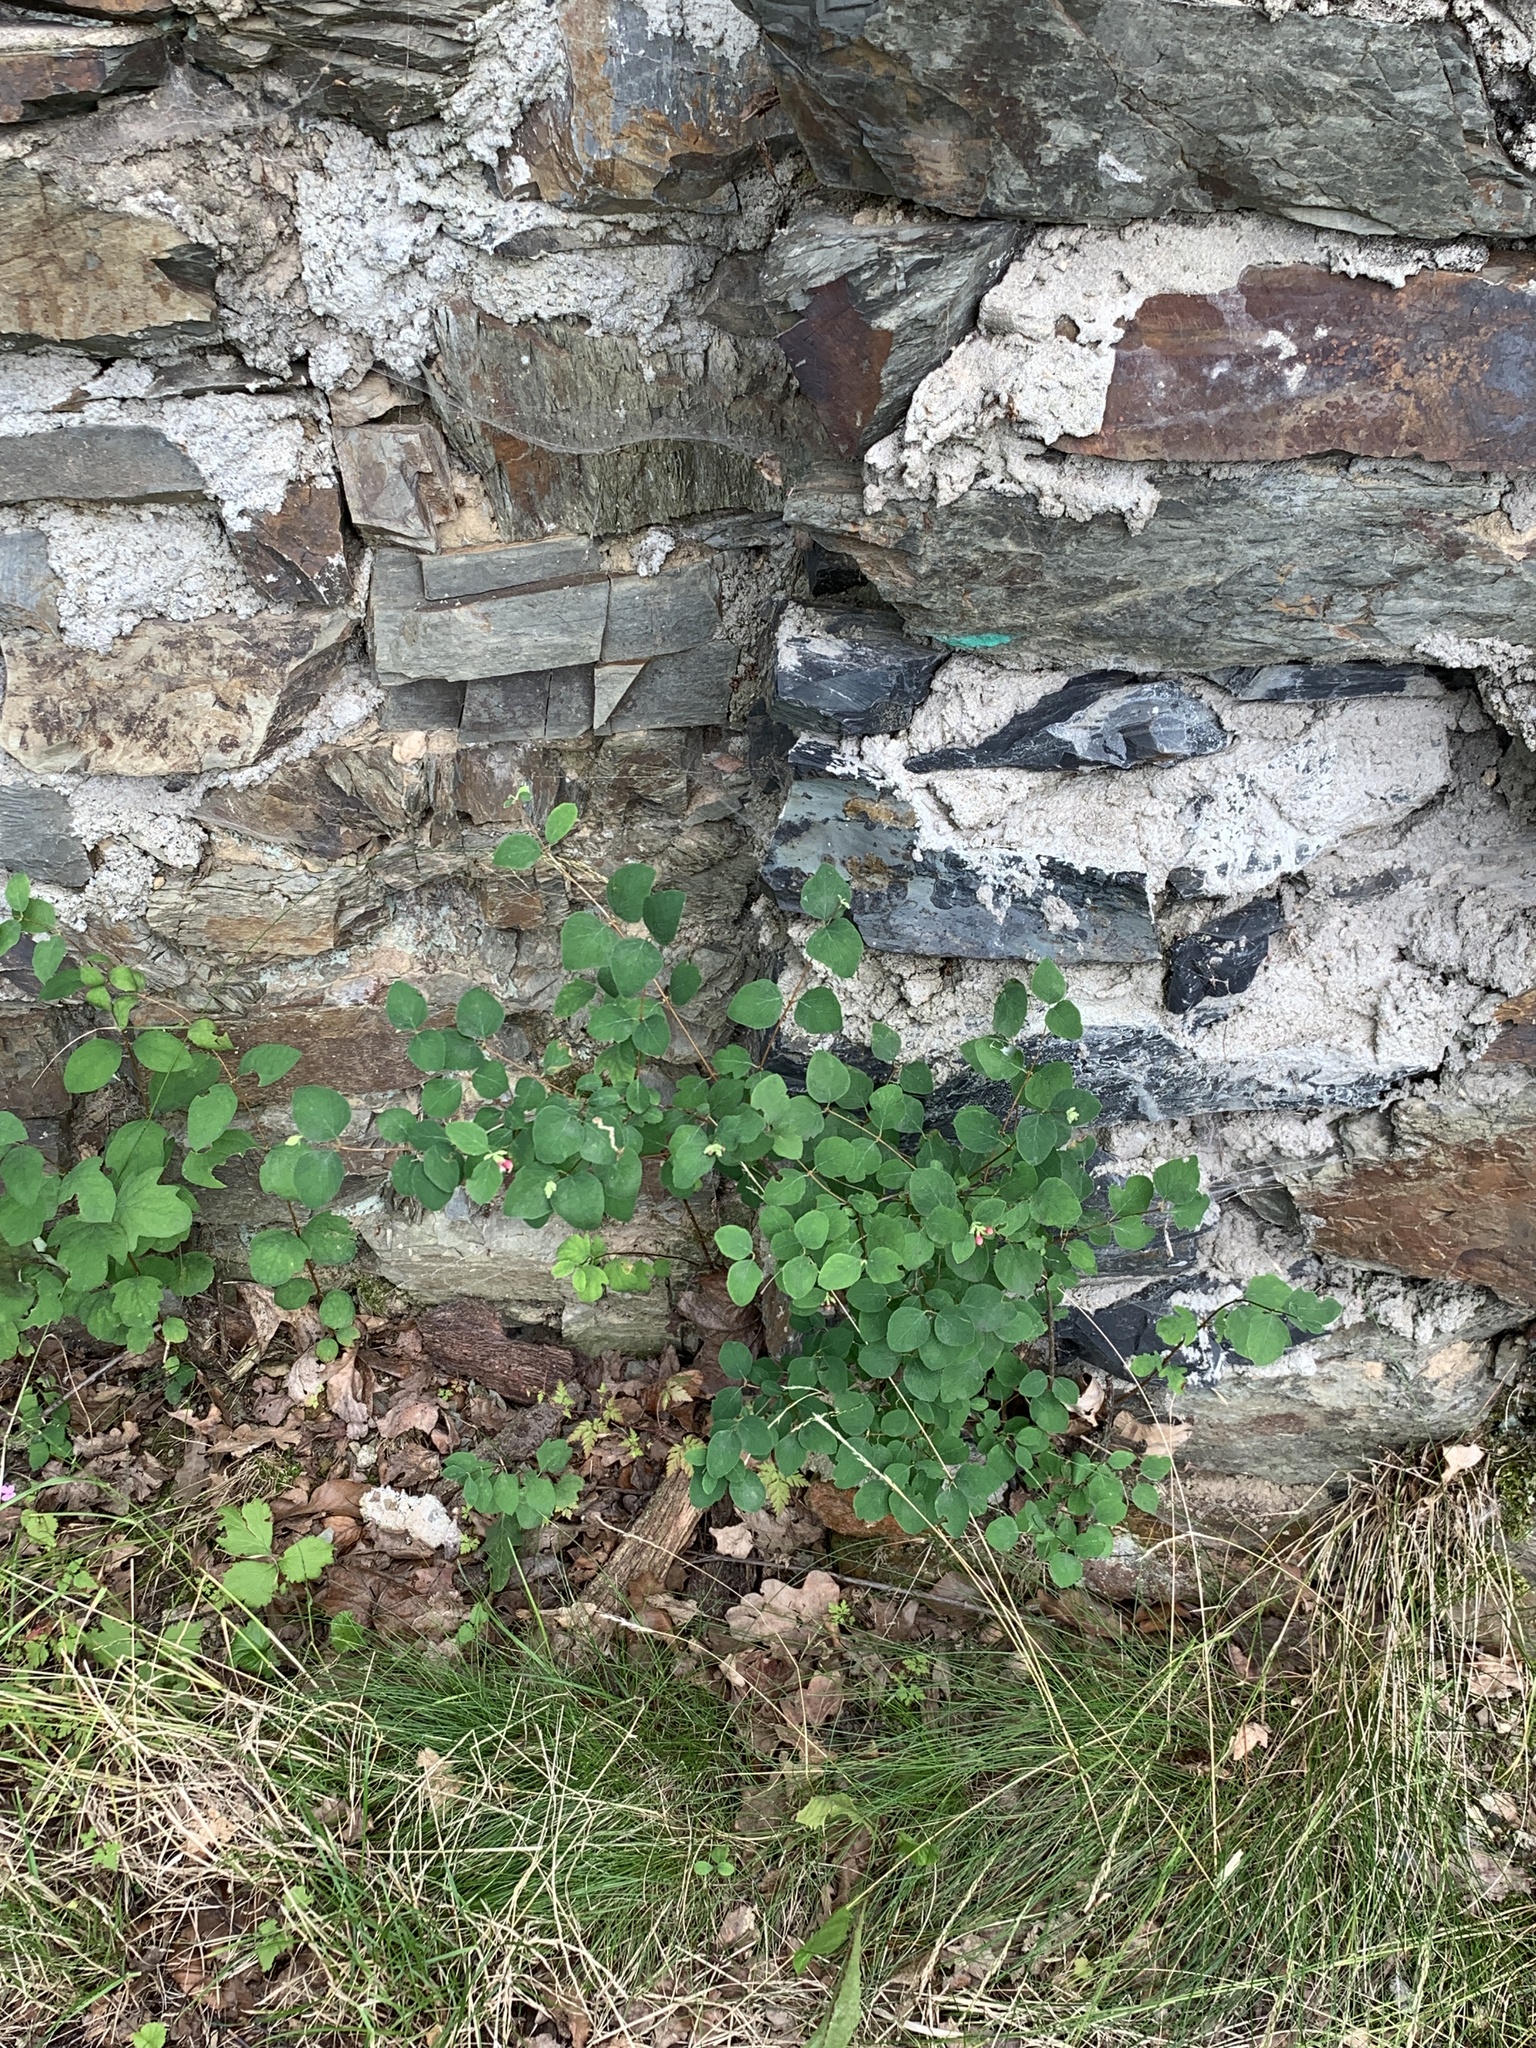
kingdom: Plantae
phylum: Tracheophyta
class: Magnoliopsida
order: Dipsacales
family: Caprifoliaceae
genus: Symphoricarpos
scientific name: Symphoricarpos albus
